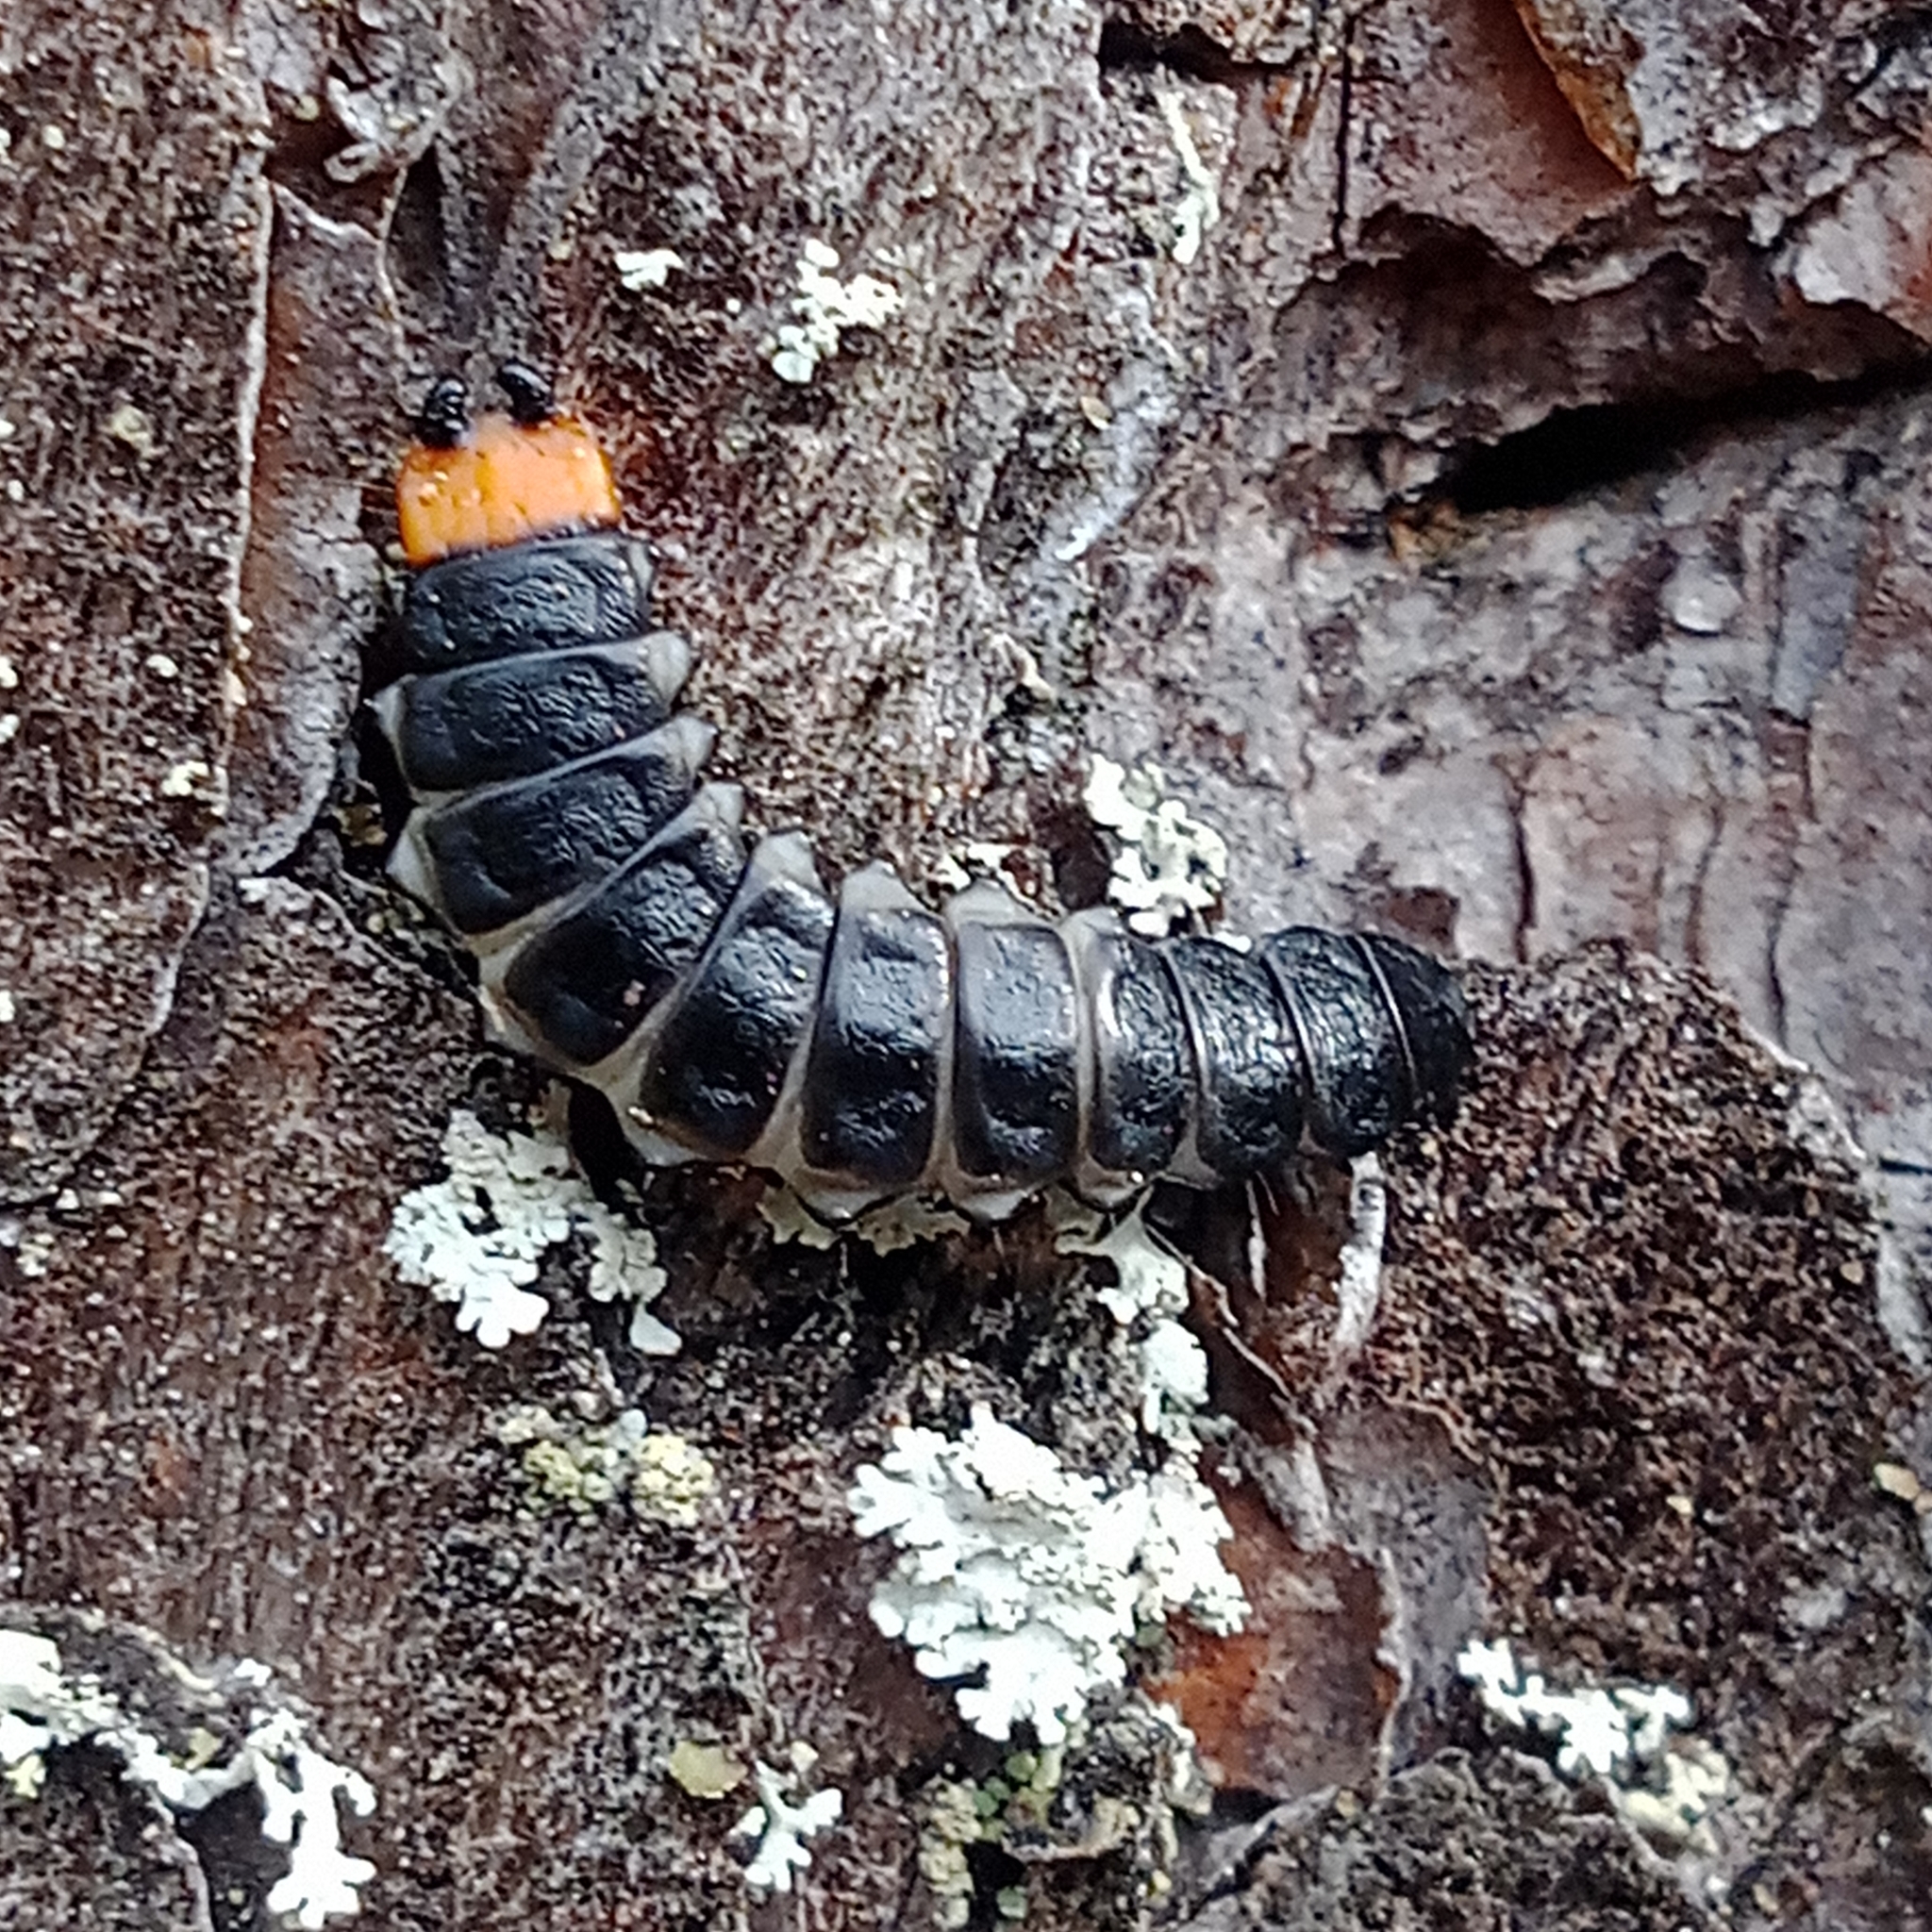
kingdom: Animalia
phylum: Arthropoda
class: Insecta
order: Coleoptera
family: Lycidae
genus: Lygistopterus
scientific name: Lygistopterus sanguineus
